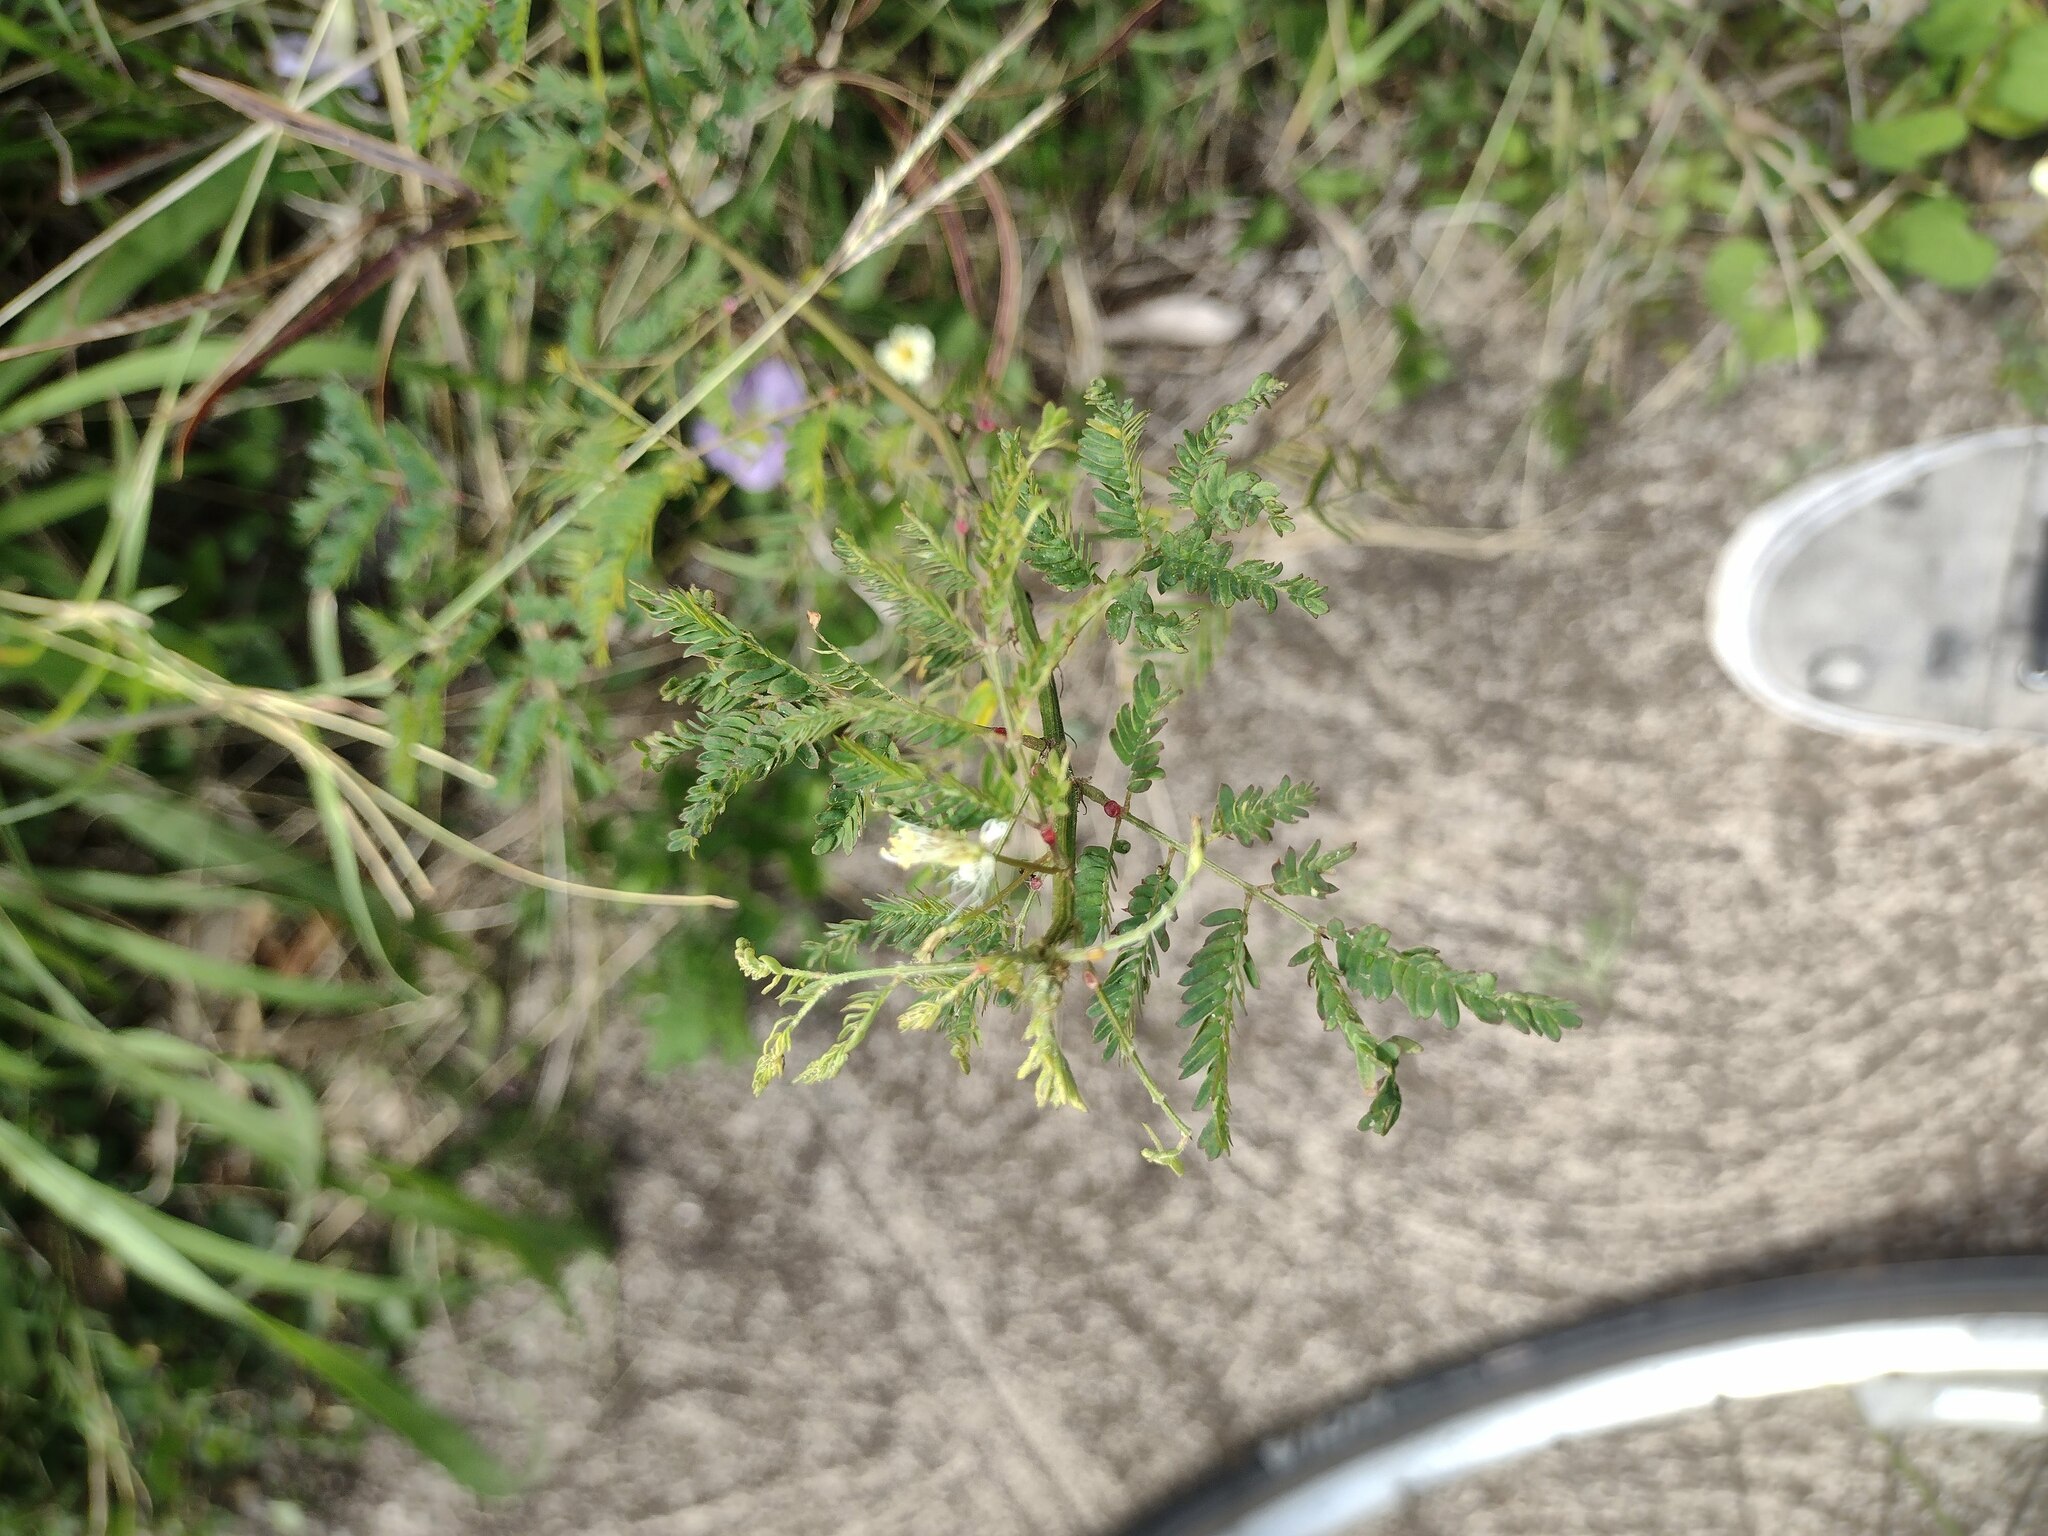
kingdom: Plantae
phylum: Tracheophyta
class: Magnoliopsida
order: Fabales
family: Fabaceae
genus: Desmanthus
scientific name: Desmanthus pernambucanus
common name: Pigeon bundleflower
